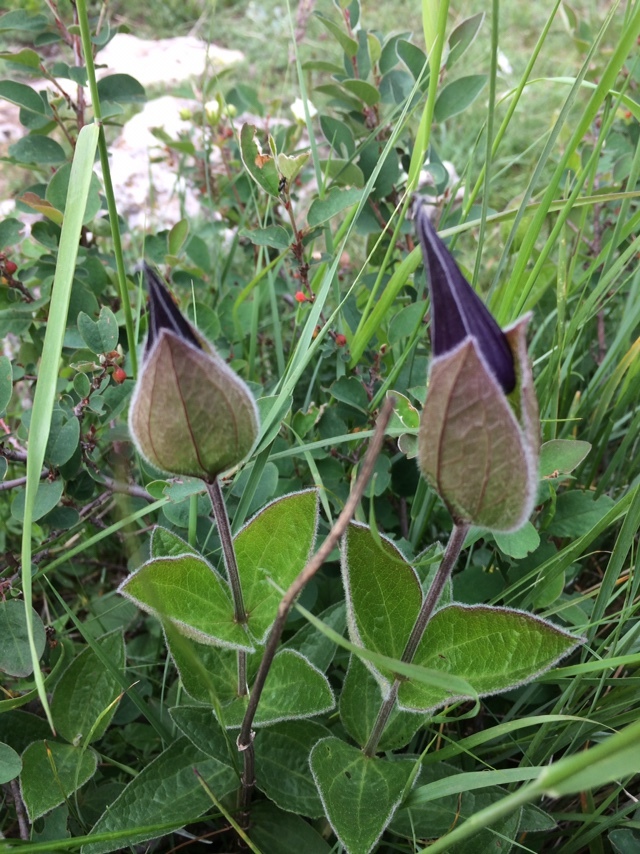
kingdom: Plantae
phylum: Tracheophyta
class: Magnoliopsida
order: Ranunculales
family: Ranunculaceae
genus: Clematis
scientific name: Clematis integrifolia
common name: Solitary clematis
